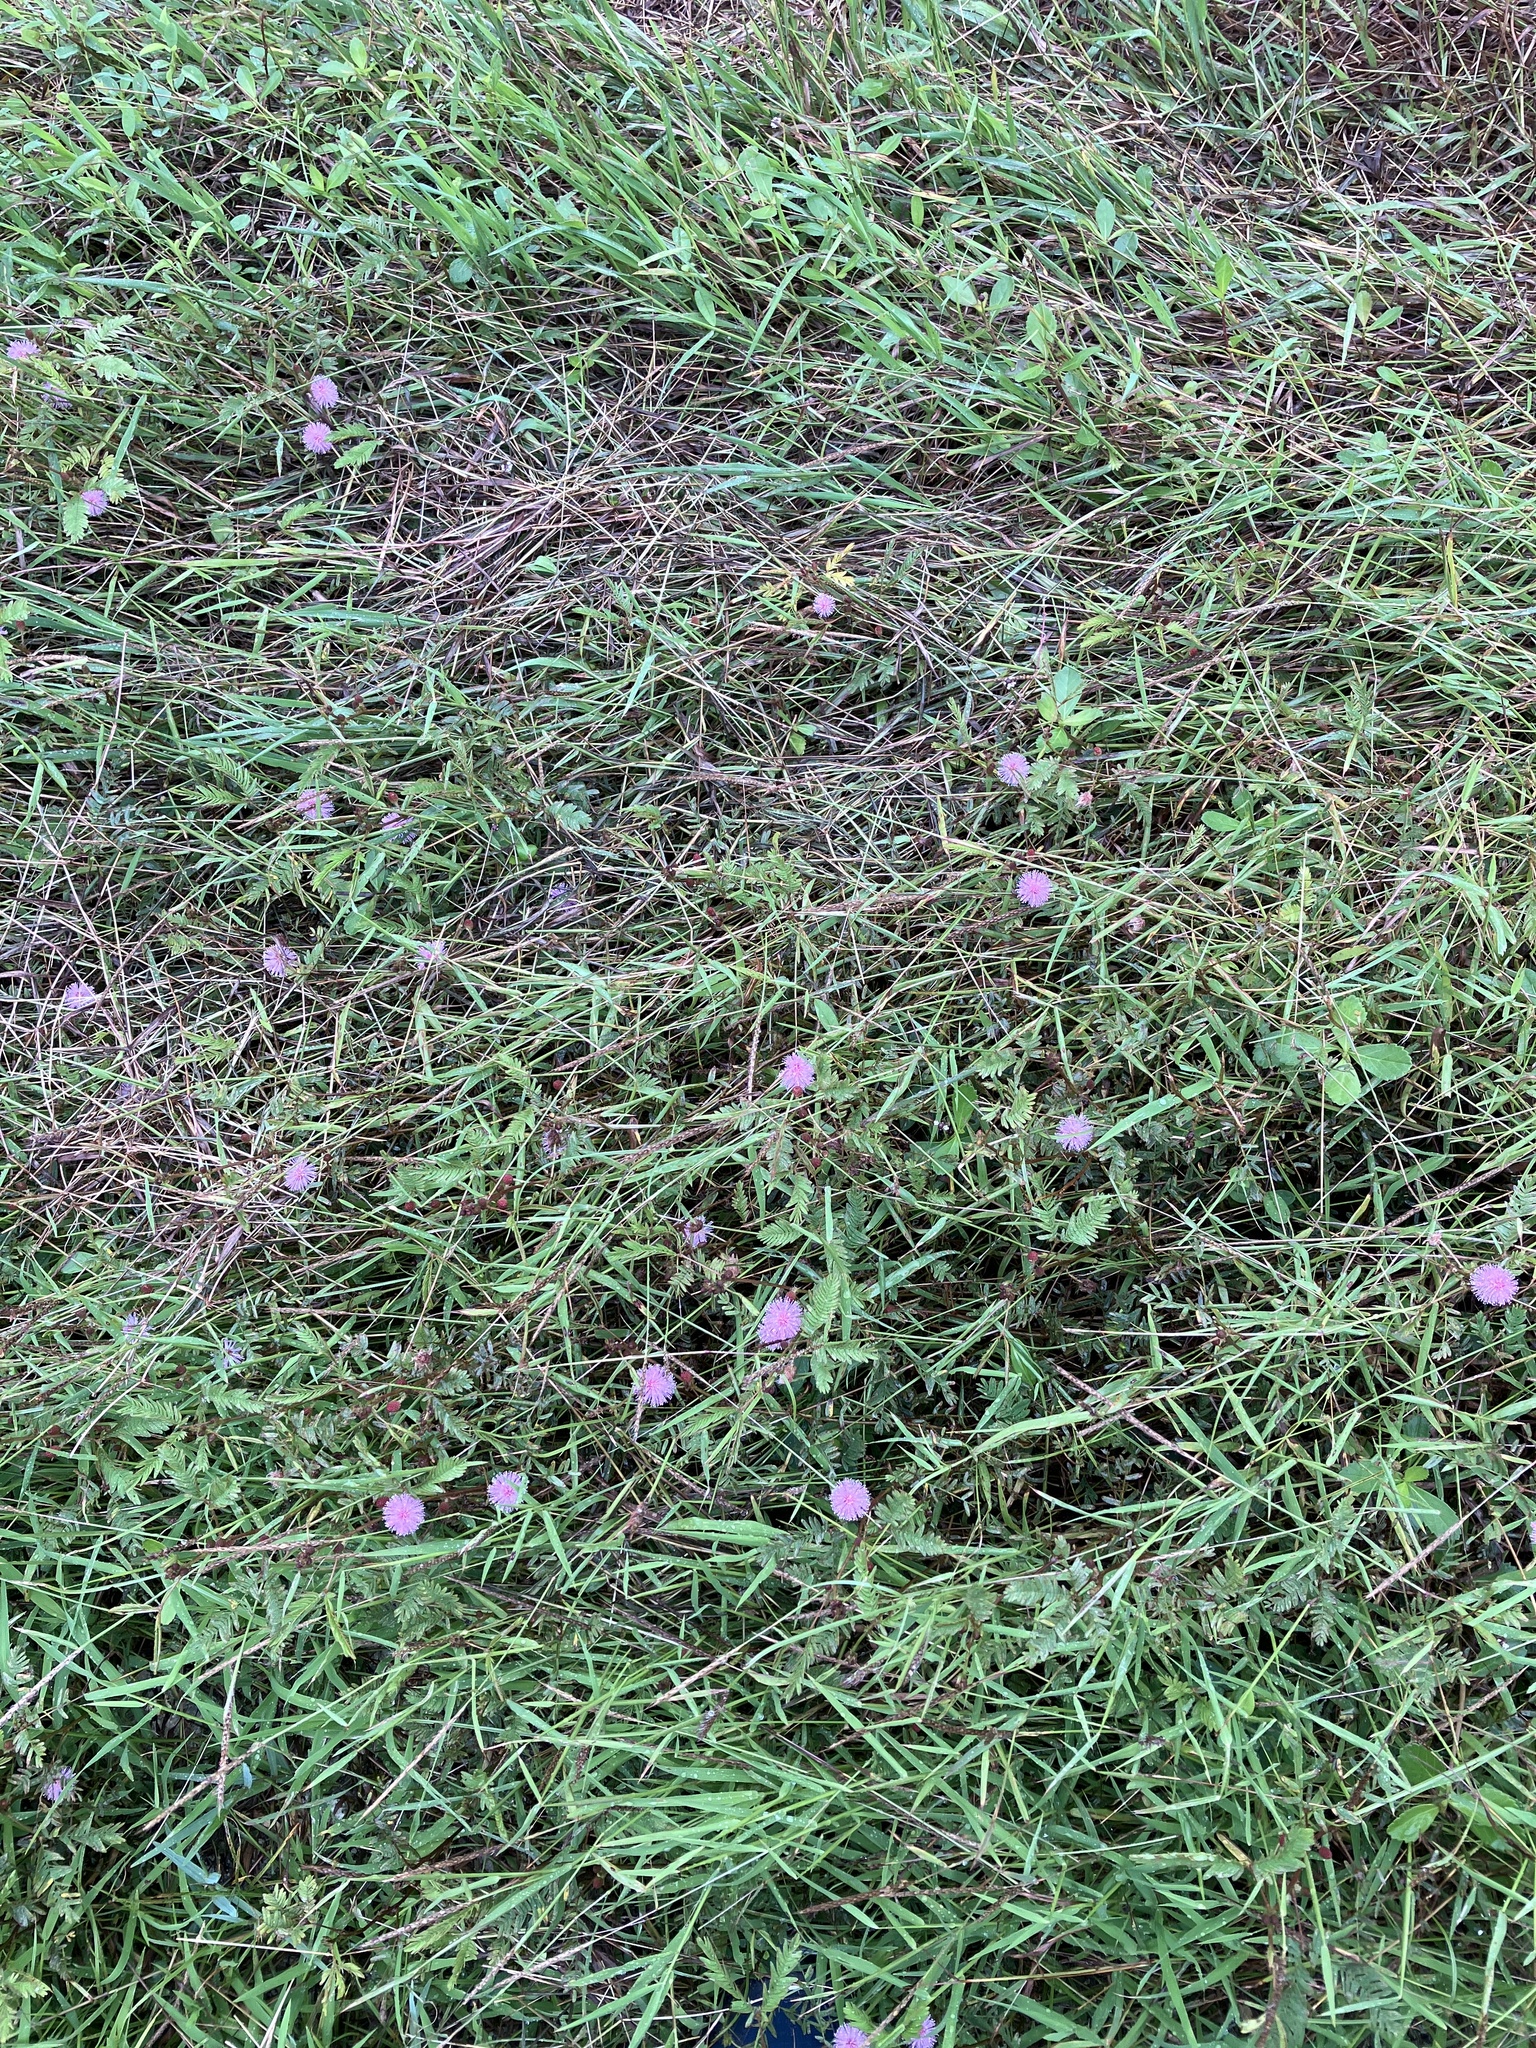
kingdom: Plantae
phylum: Tracheophyta
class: Magnoliopsida
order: Fabales
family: Fabaceae
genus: Mimosa
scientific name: Mimosa pudica
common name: Sensitive plant
